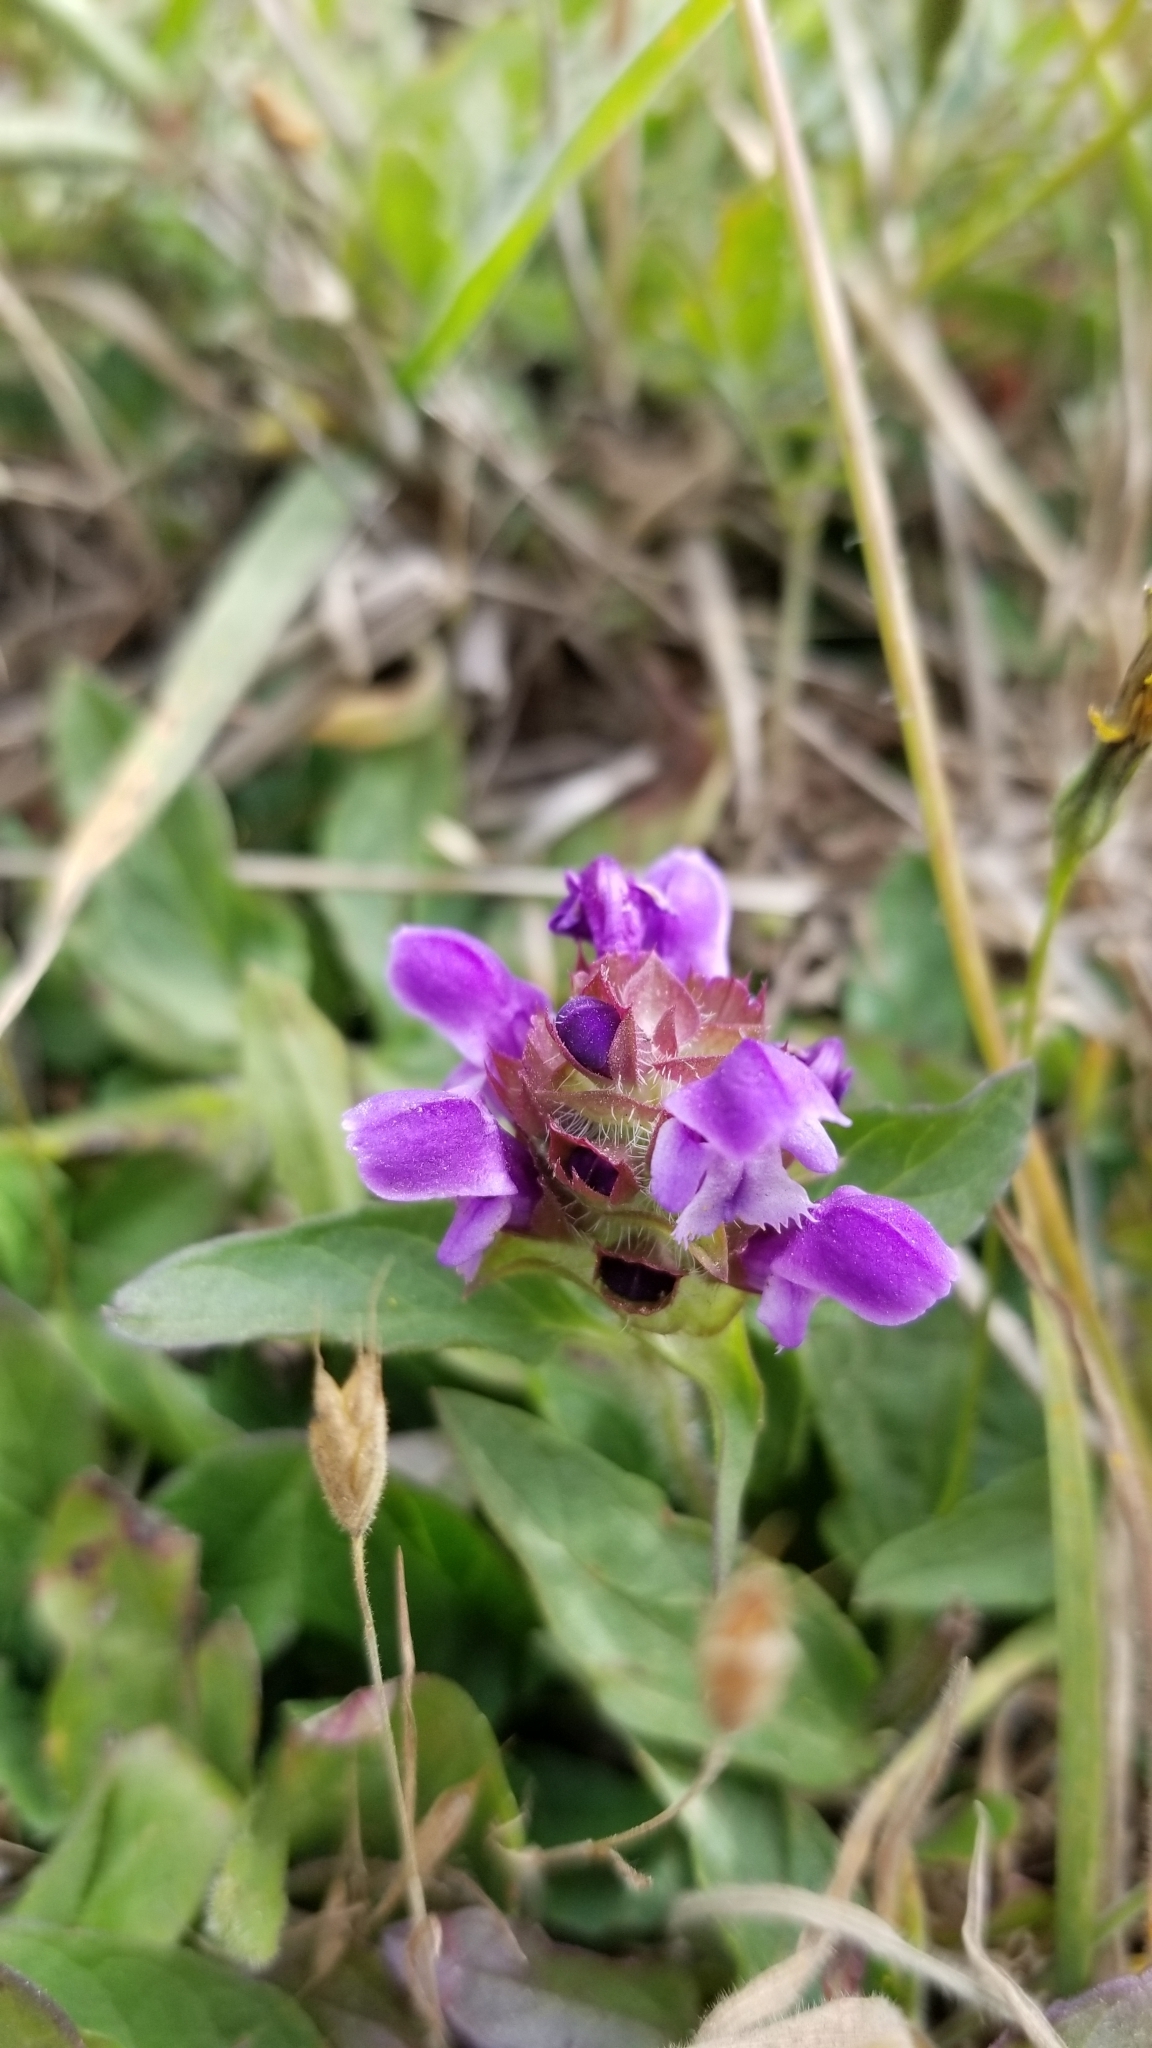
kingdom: Plantae
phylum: Tracheophyta
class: Magnoliopsida
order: Lamiales
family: Lamiaceae
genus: Prunella
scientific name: Prunella vulgaris
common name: Heal-all
